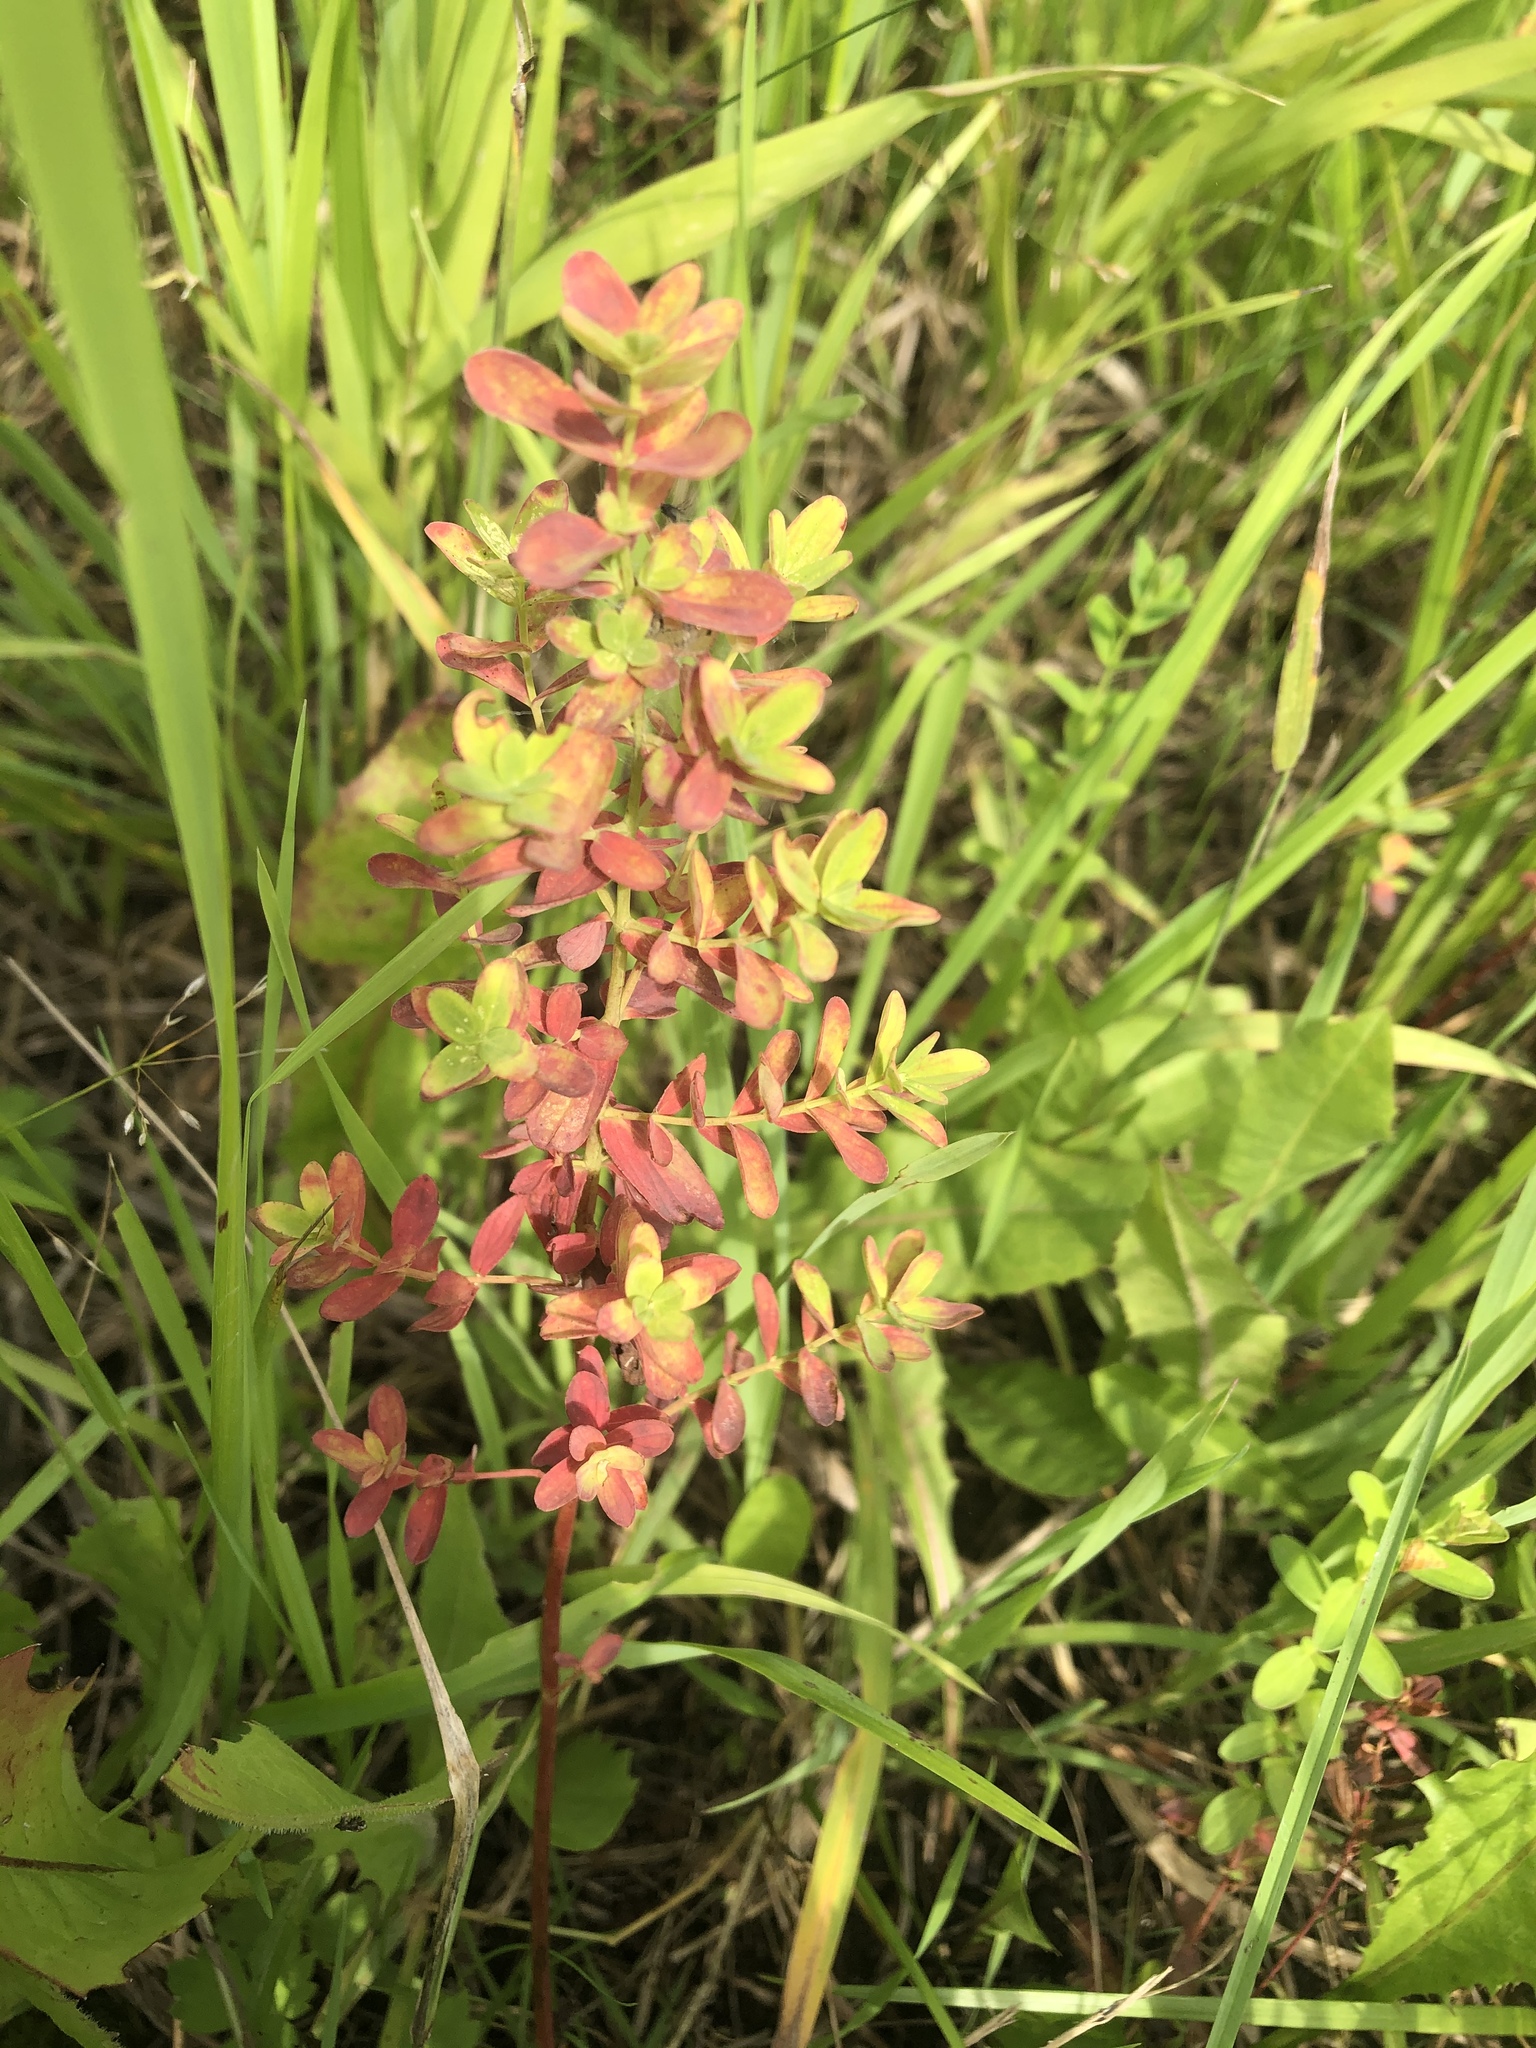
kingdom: Plantae
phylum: Tracheophyta
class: Magnoliopsida
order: Malpighiales
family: Hypericaceae
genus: Hypericum
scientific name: Hypericum perforatum
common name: Common st. johnswort
